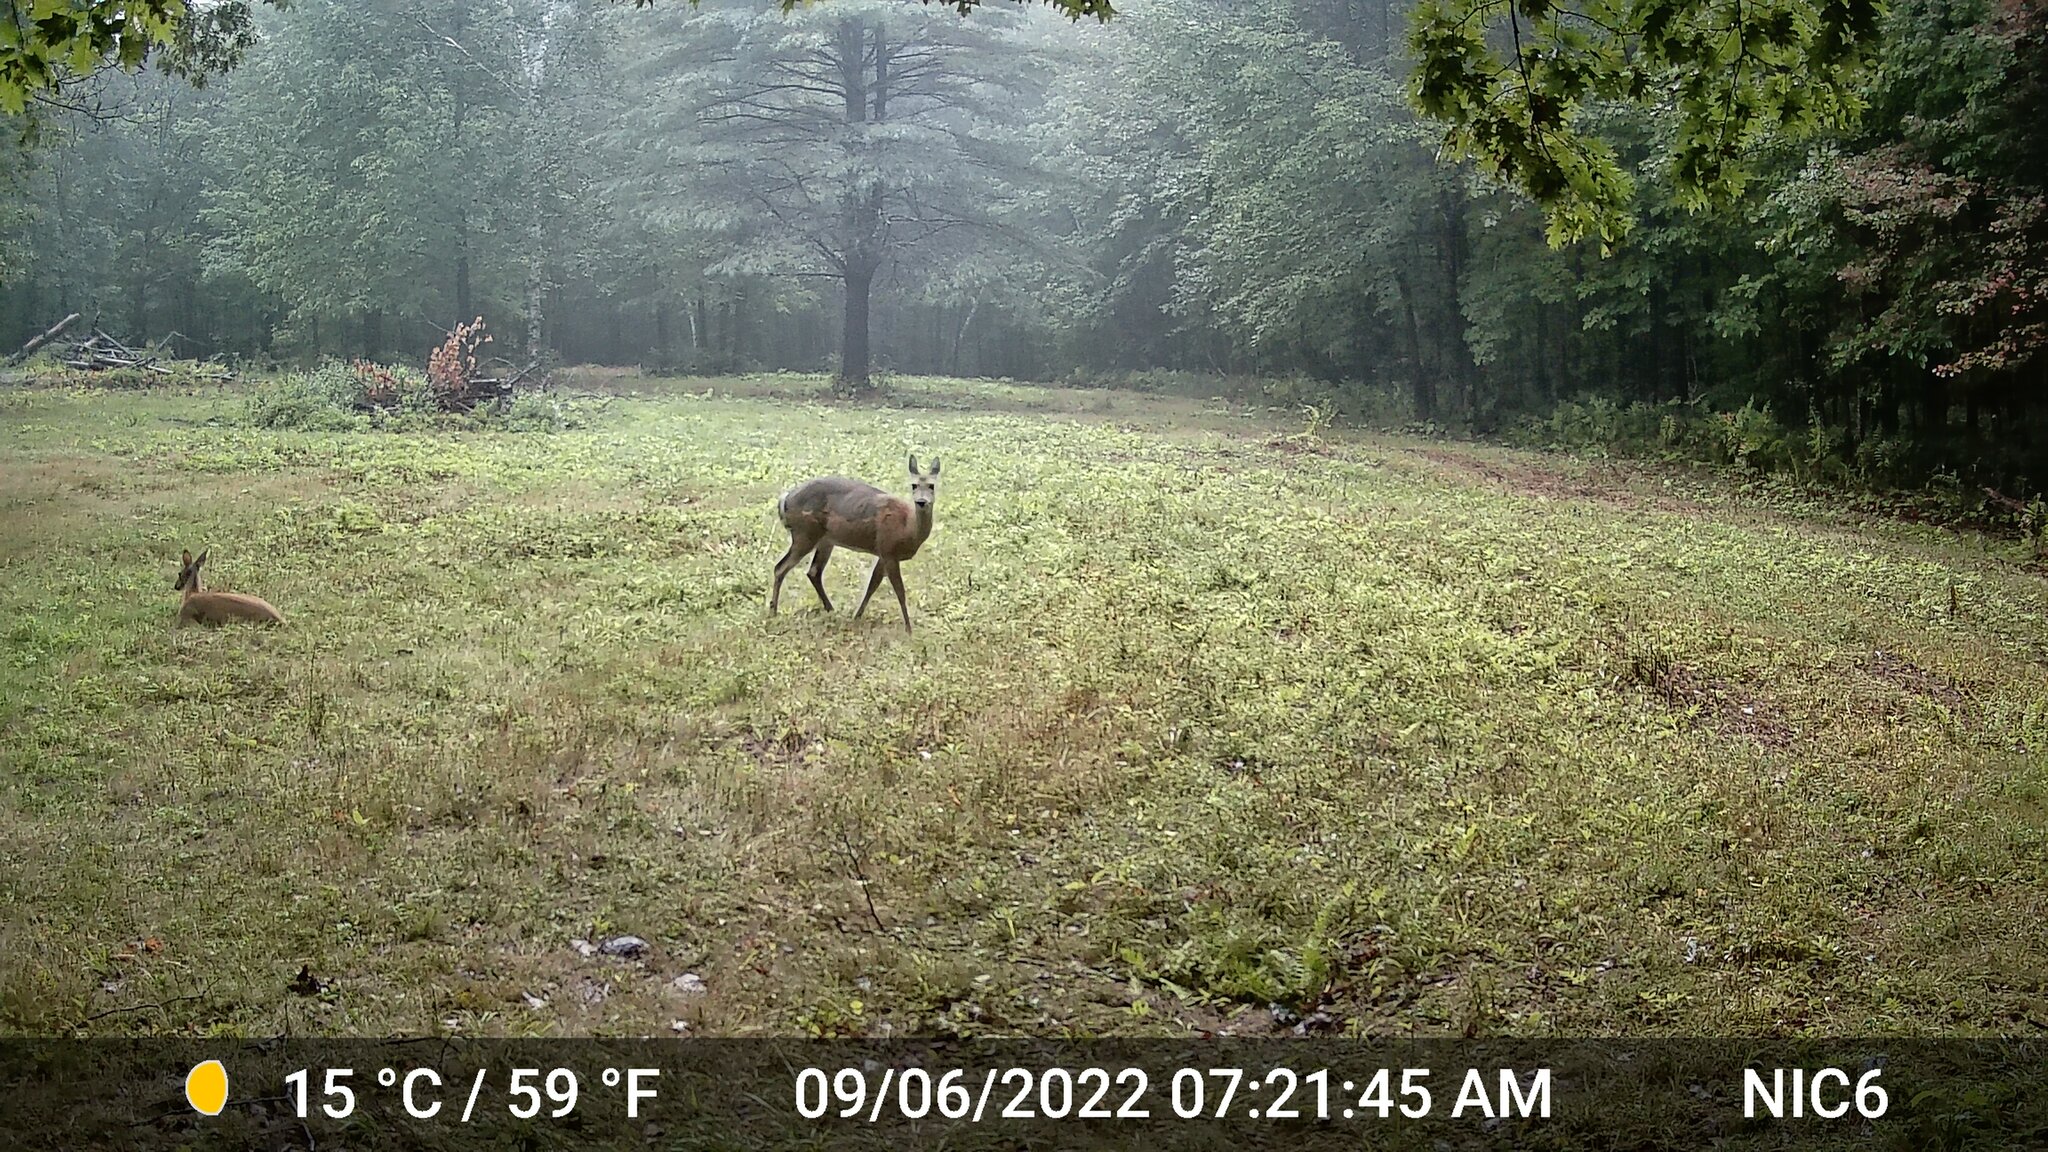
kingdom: Animalia
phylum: Chordata
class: Mammalia
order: Artiodactyla
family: Cervidae
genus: Odocoileus
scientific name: Odocoileus virginianus
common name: White-tailed deer
